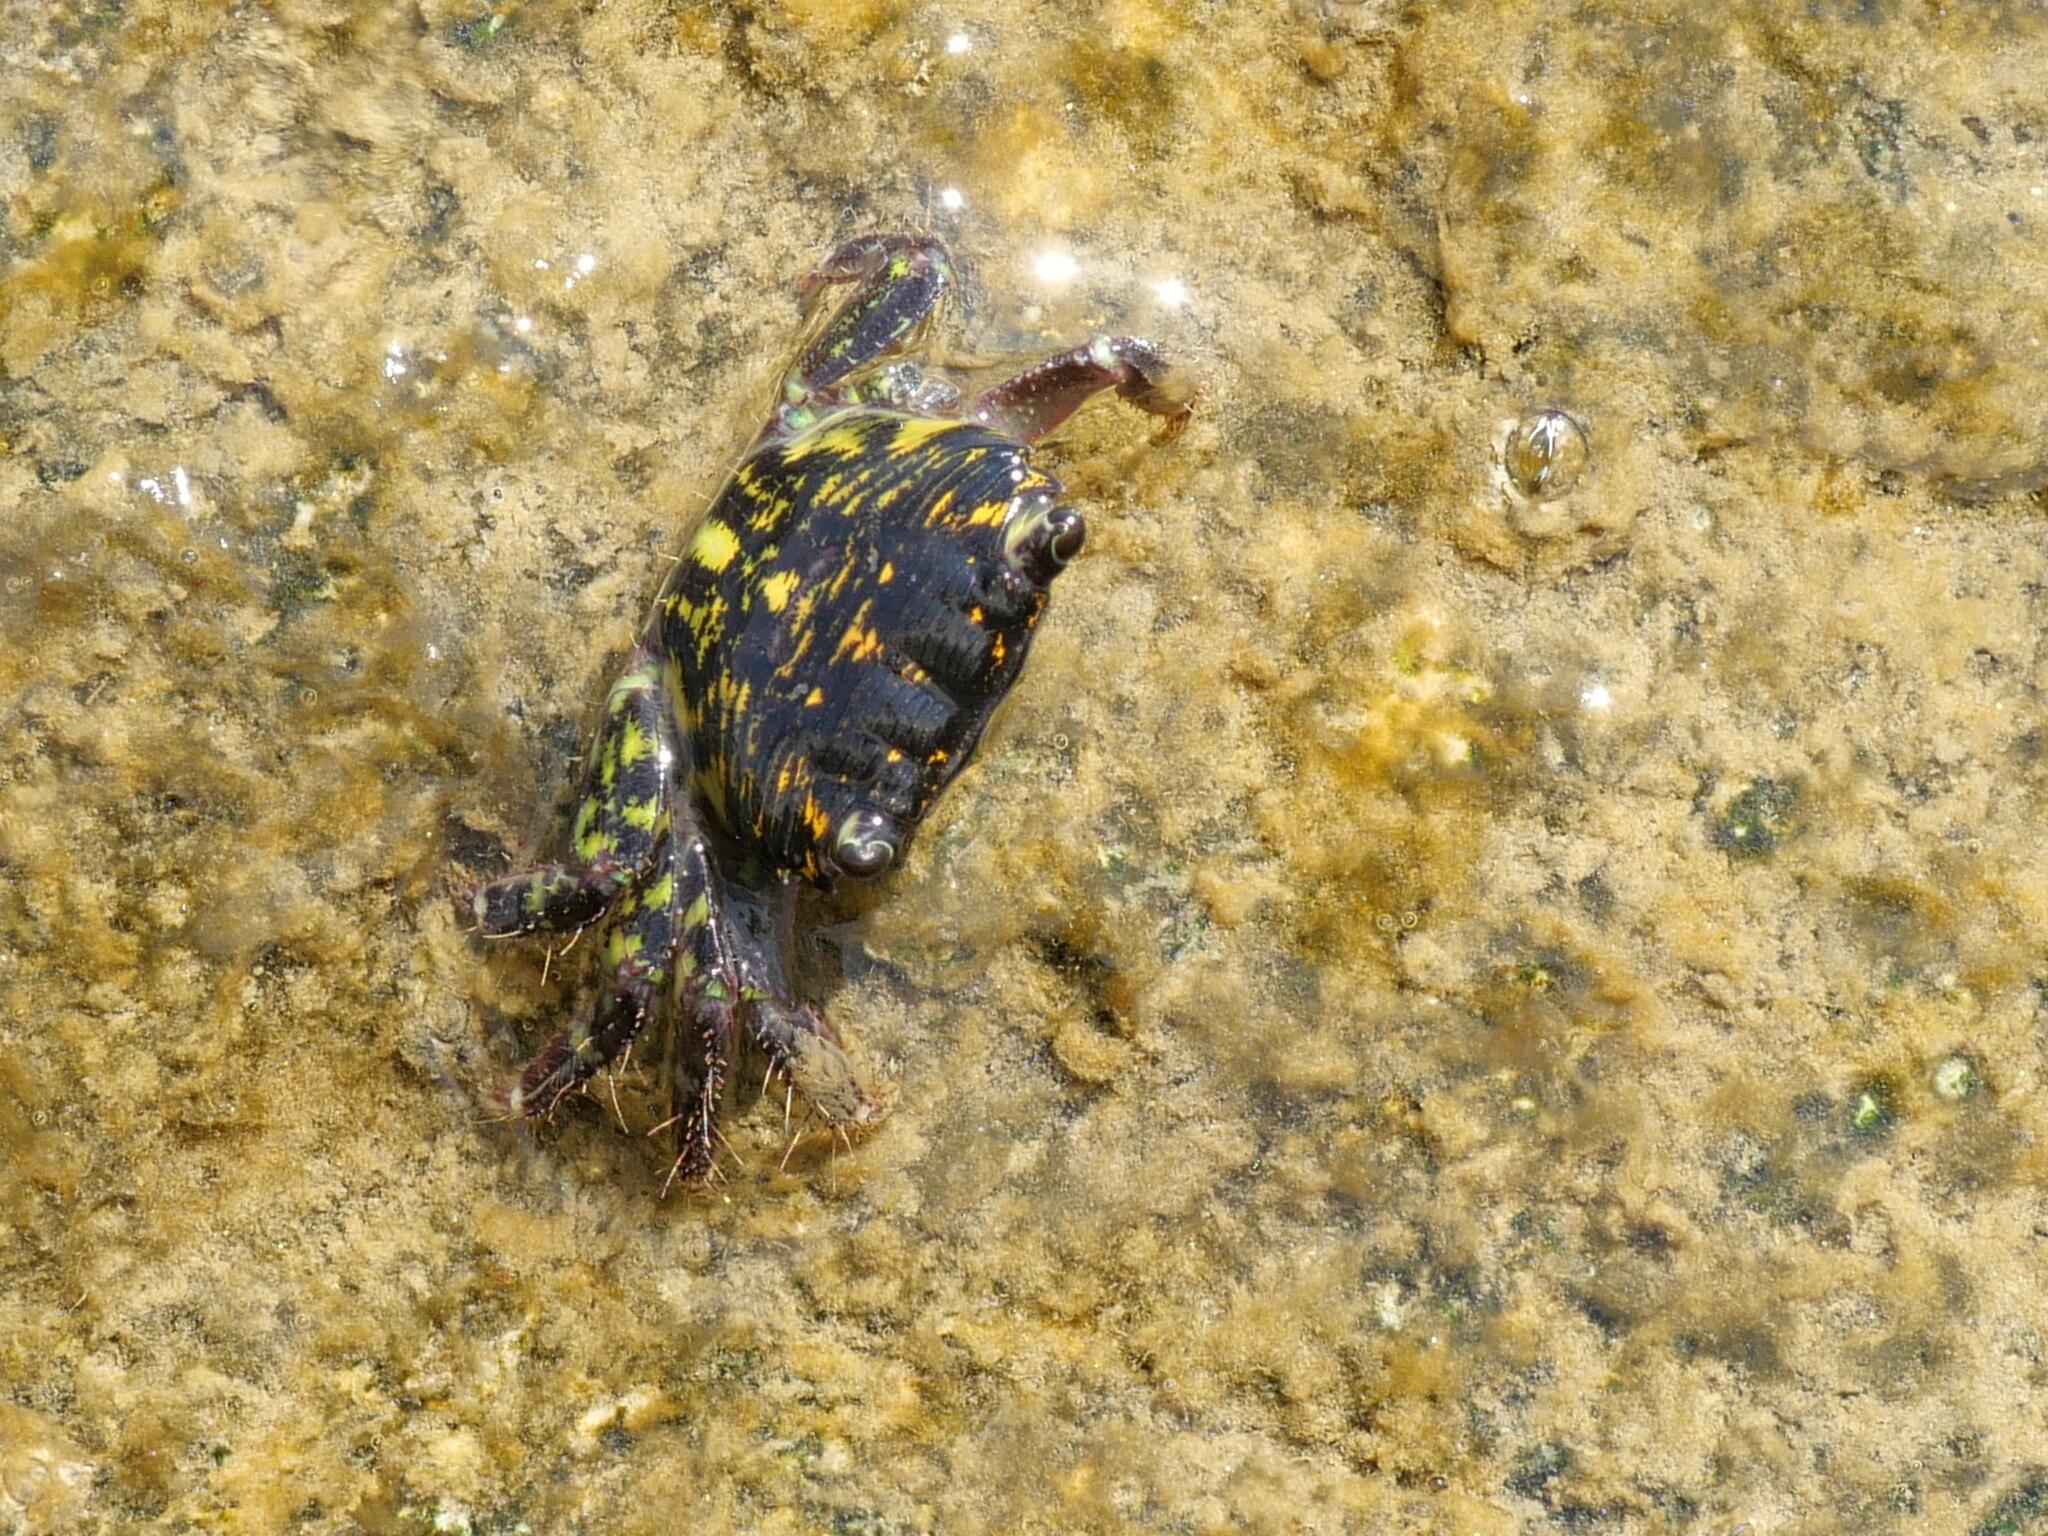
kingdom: Animalia
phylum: Arthropoda
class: Malacostraca
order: Decapoda
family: Grapsidae
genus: Pachygrapsus
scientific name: Pachygrapsus transversus
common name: Mottled shore crab
